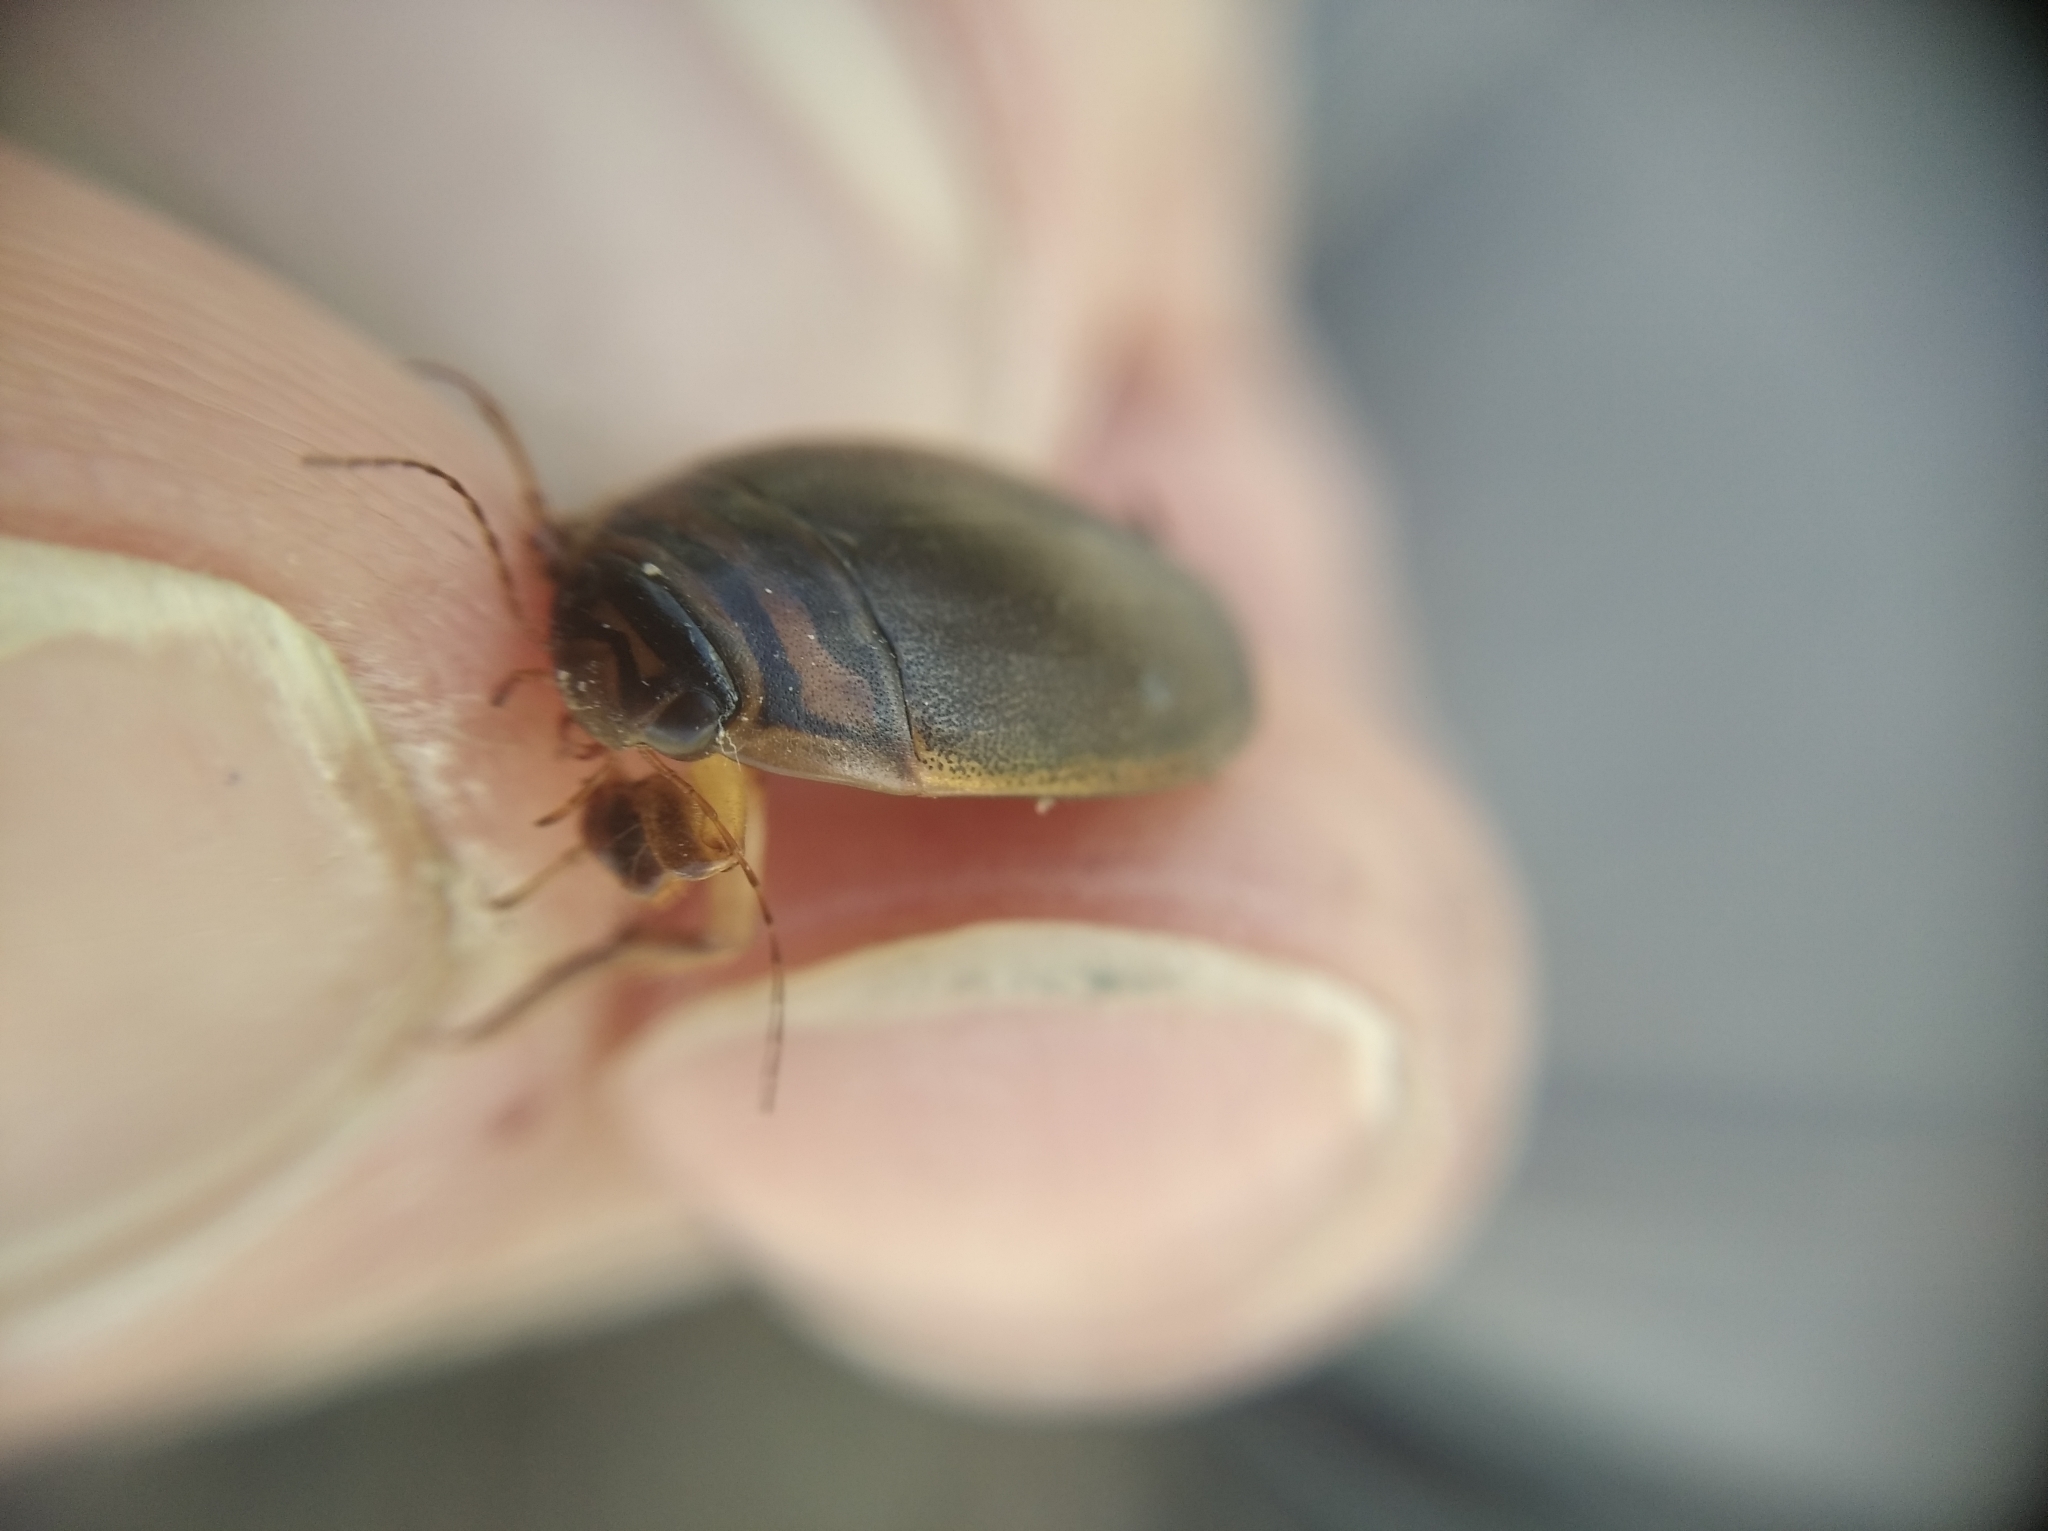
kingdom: Animalia
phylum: Arthropoda
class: Insecta
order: Coleoptera
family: Dytiscidae
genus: Acilius
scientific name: Acilius canaliculatus
